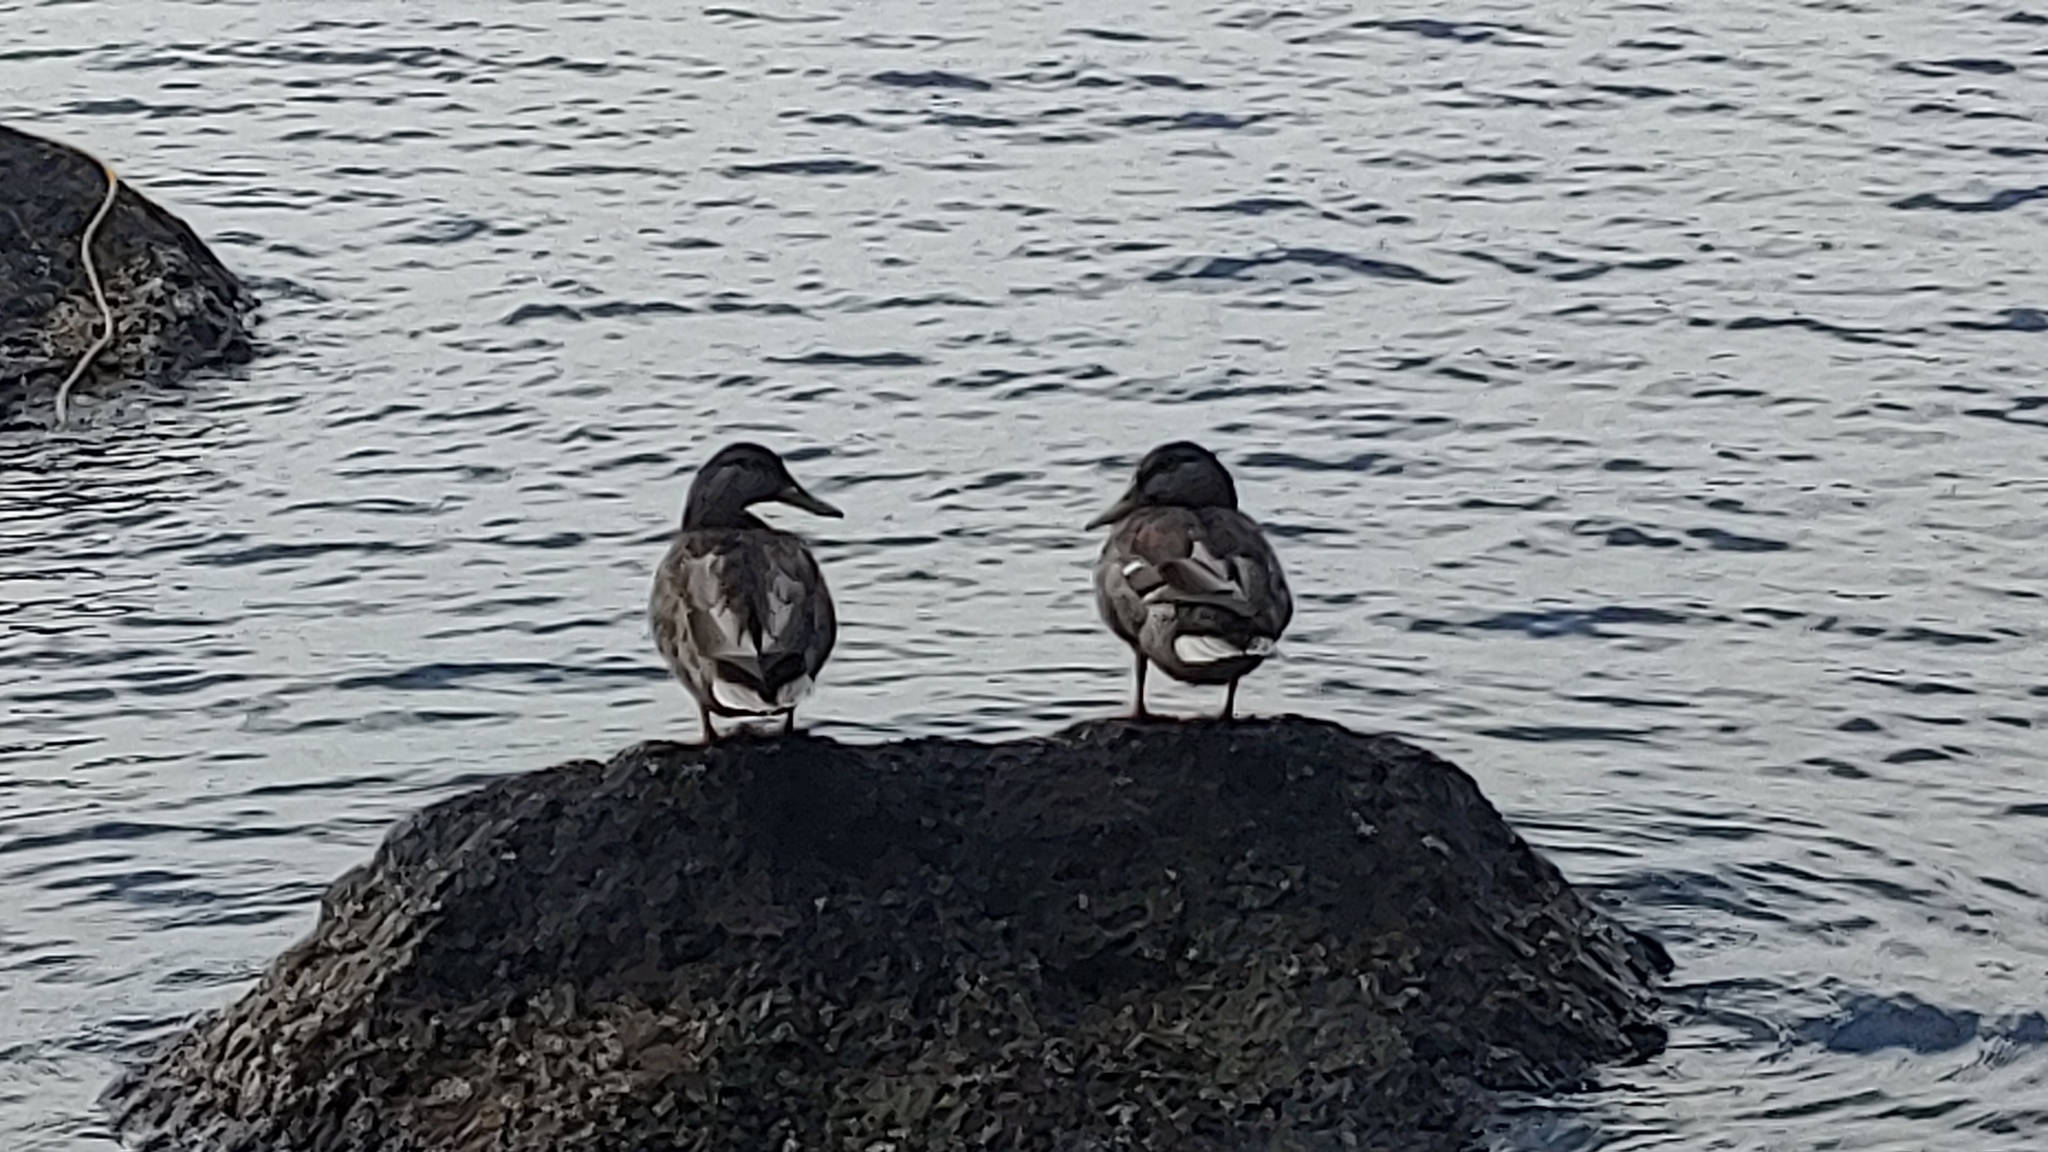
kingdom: Animalia
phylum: Chordata
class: Aves
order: Anseriformes
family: Anatidae
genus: Anas
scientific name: Anas platyrhynchos
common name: Mallard
